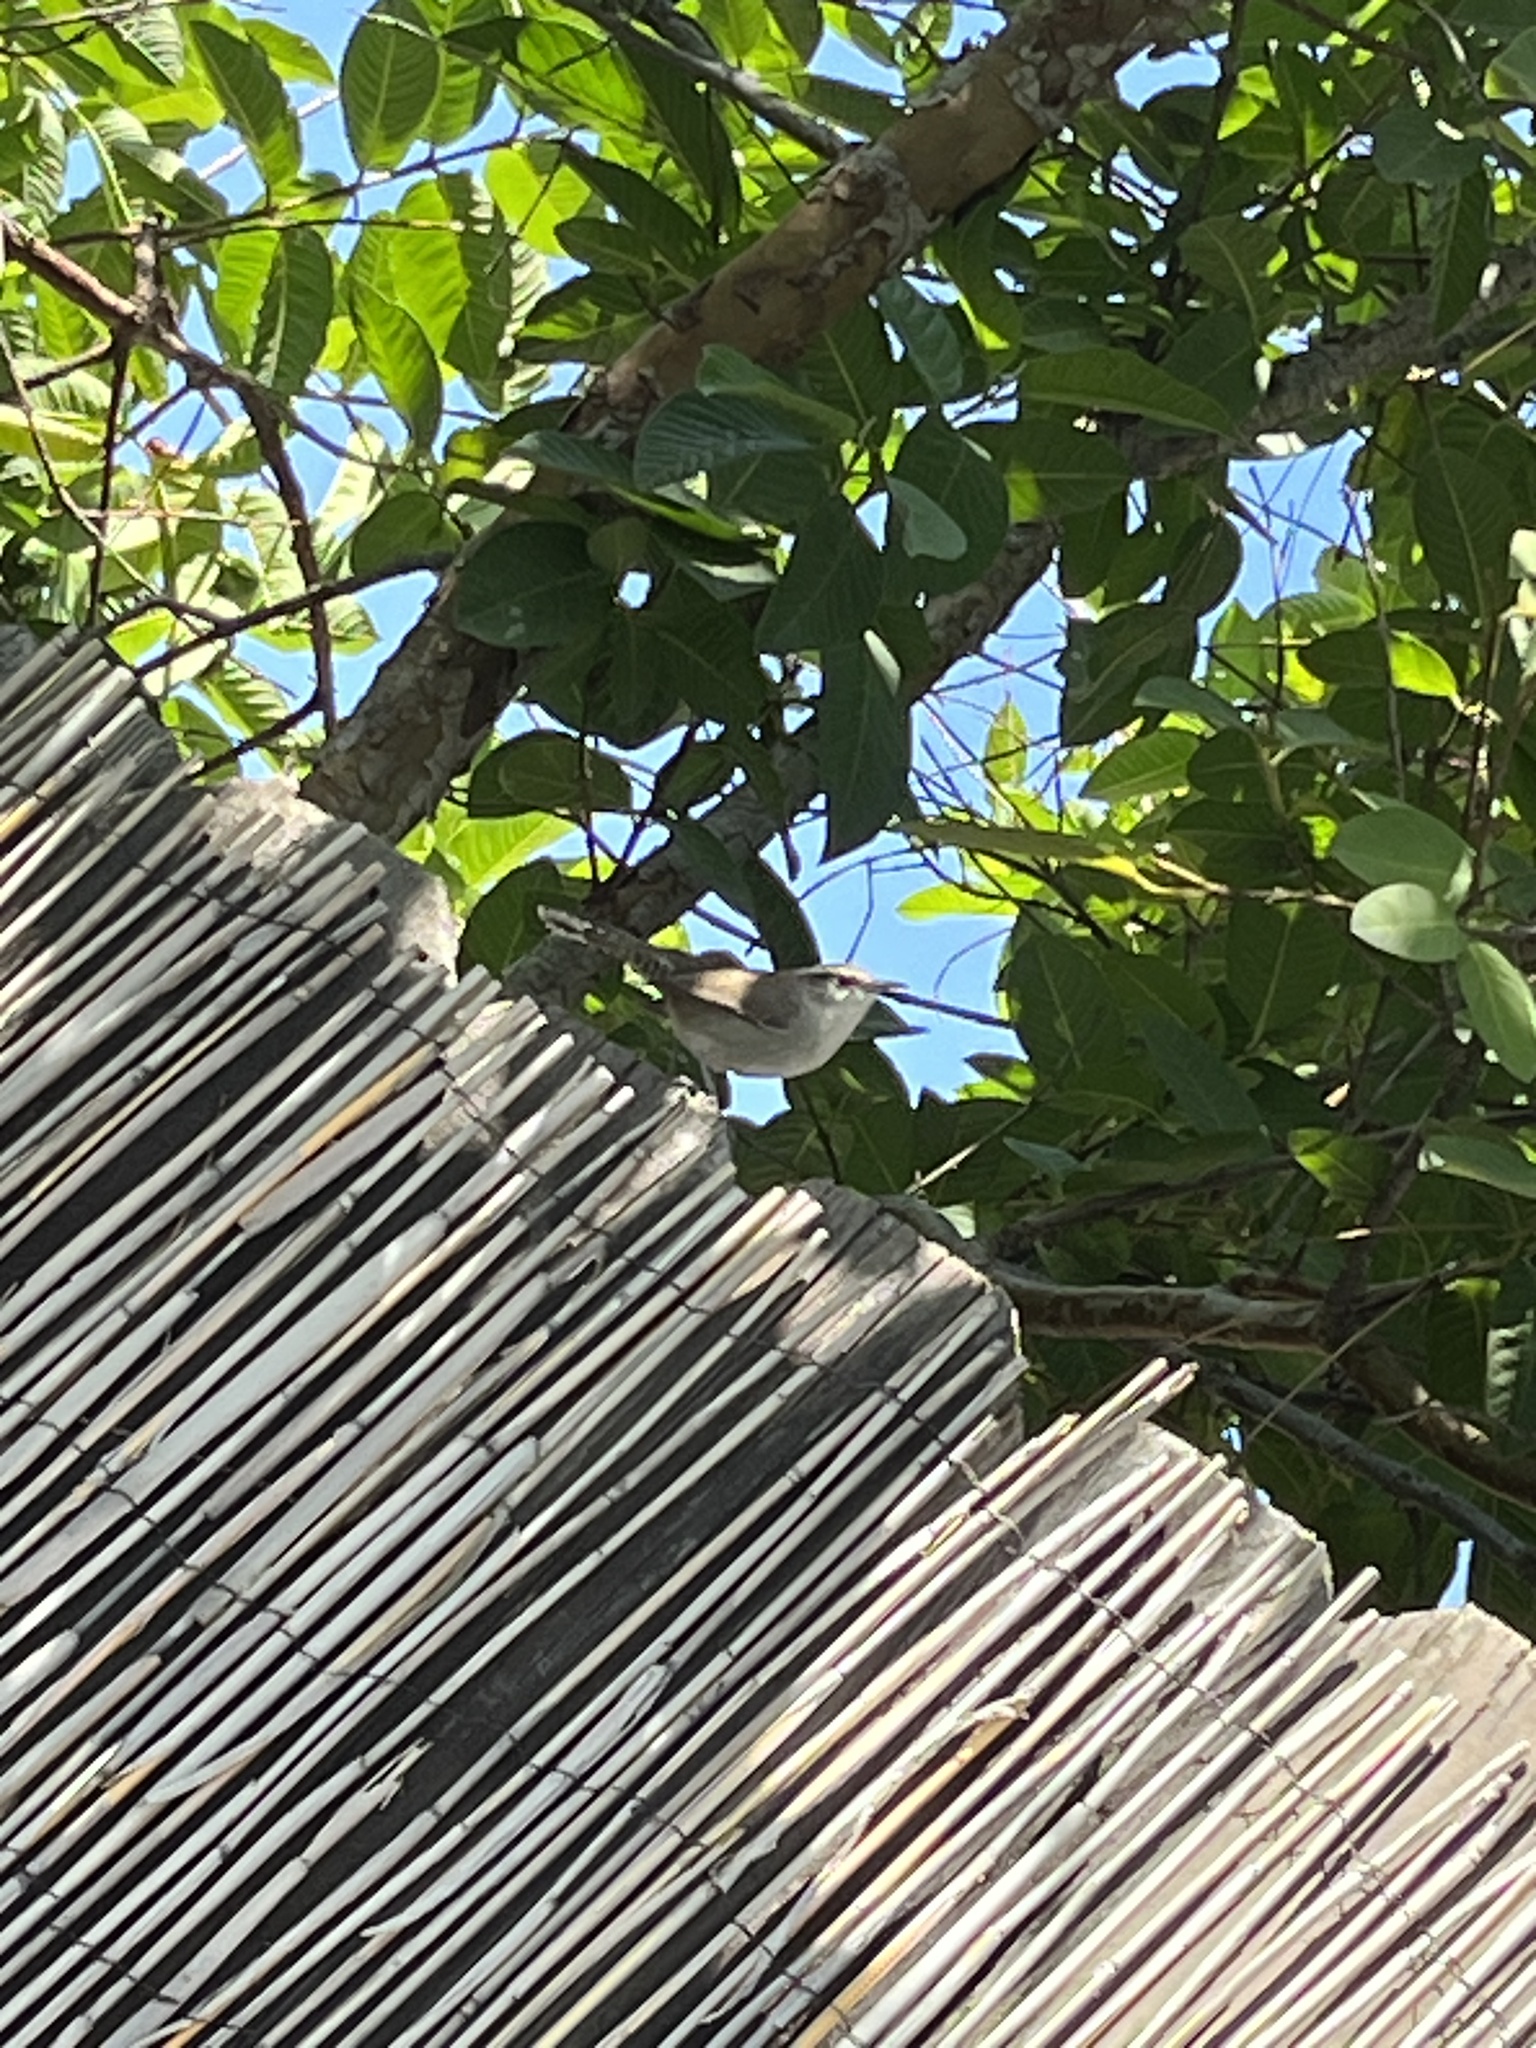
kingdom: Animalia
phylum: Chordata
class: Aves
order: Passeriformes
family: Troglodytidae
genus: Thryomanes
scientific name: Thryomanes bewickii
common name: Bewick's wren
